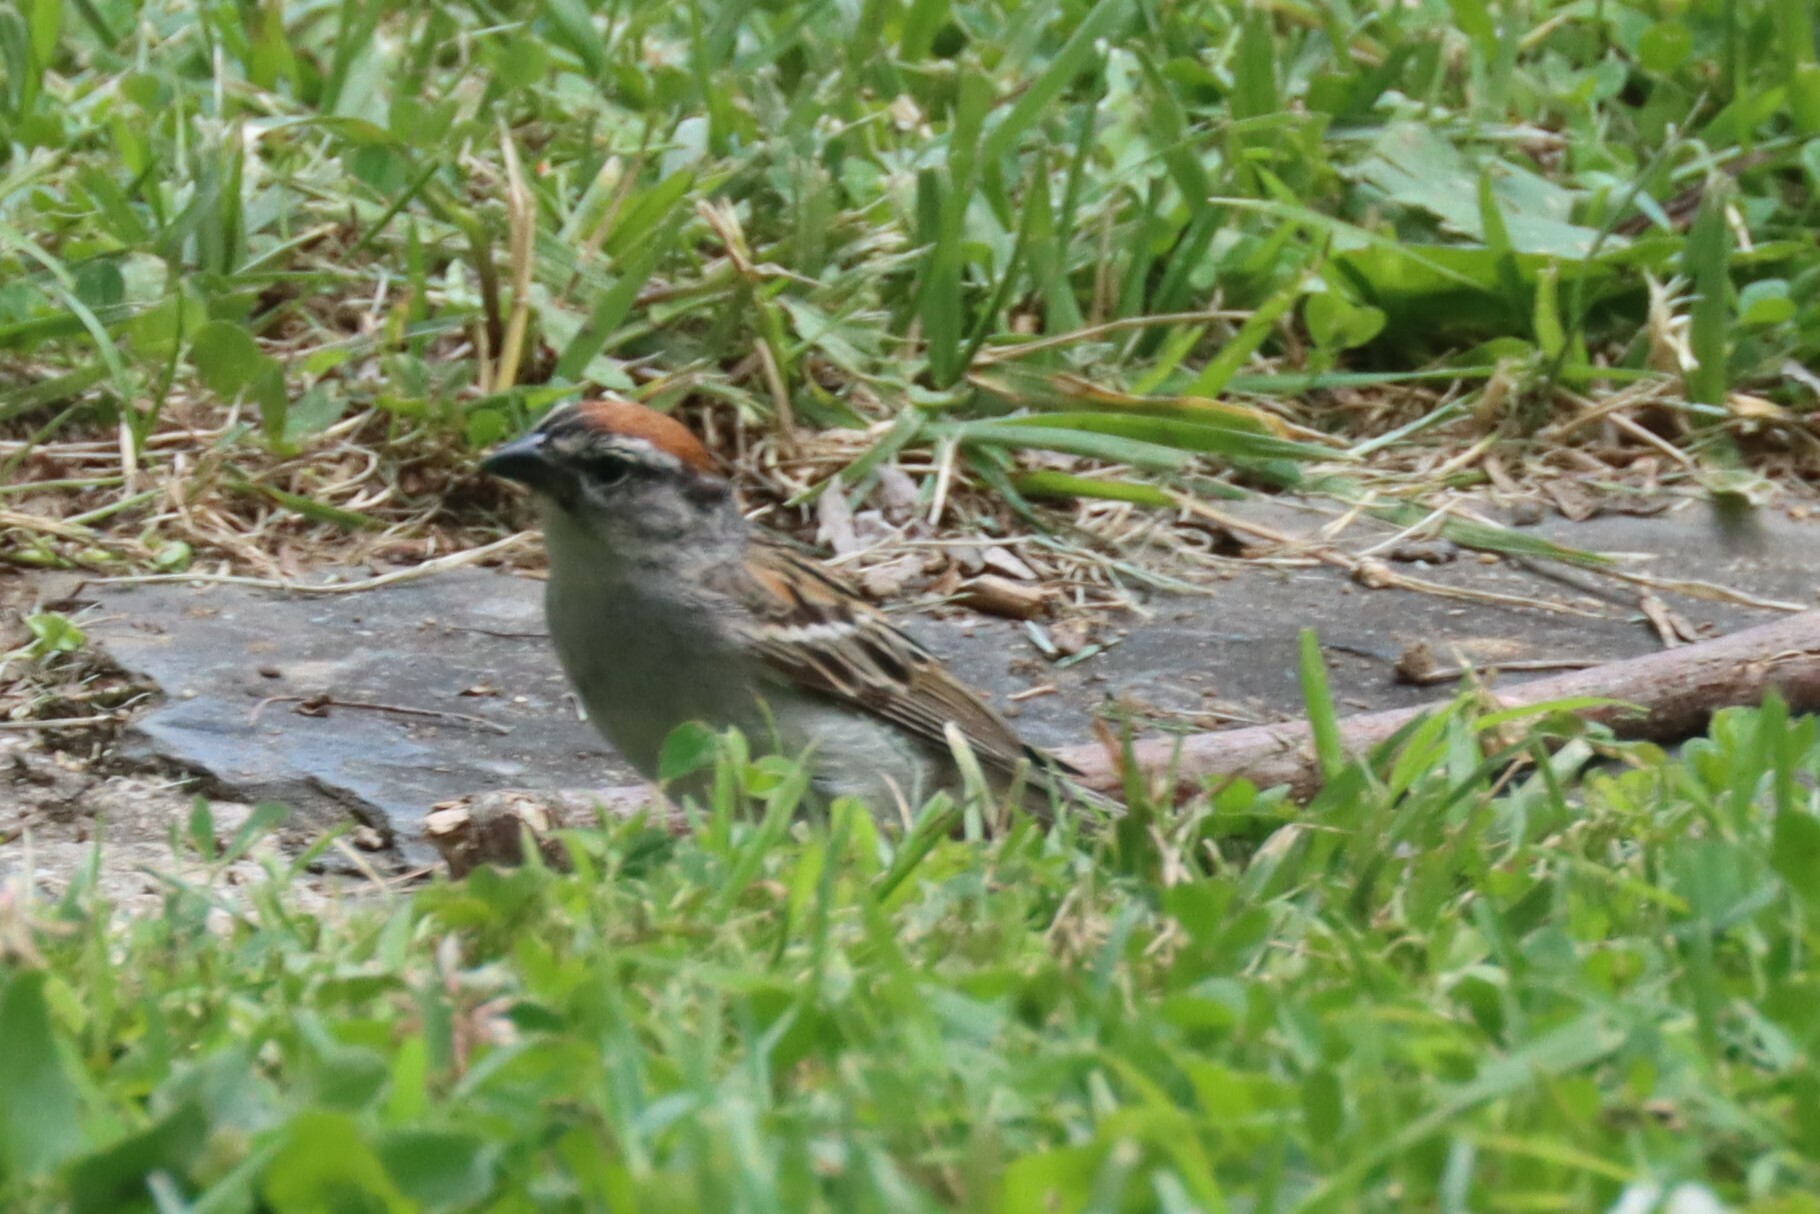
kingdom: Animalia
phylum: Chordata
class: Aves
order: Passeriformes
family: Passerellidae
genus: Spizella
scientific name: Spizella passerina
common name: Chipping sparrow
